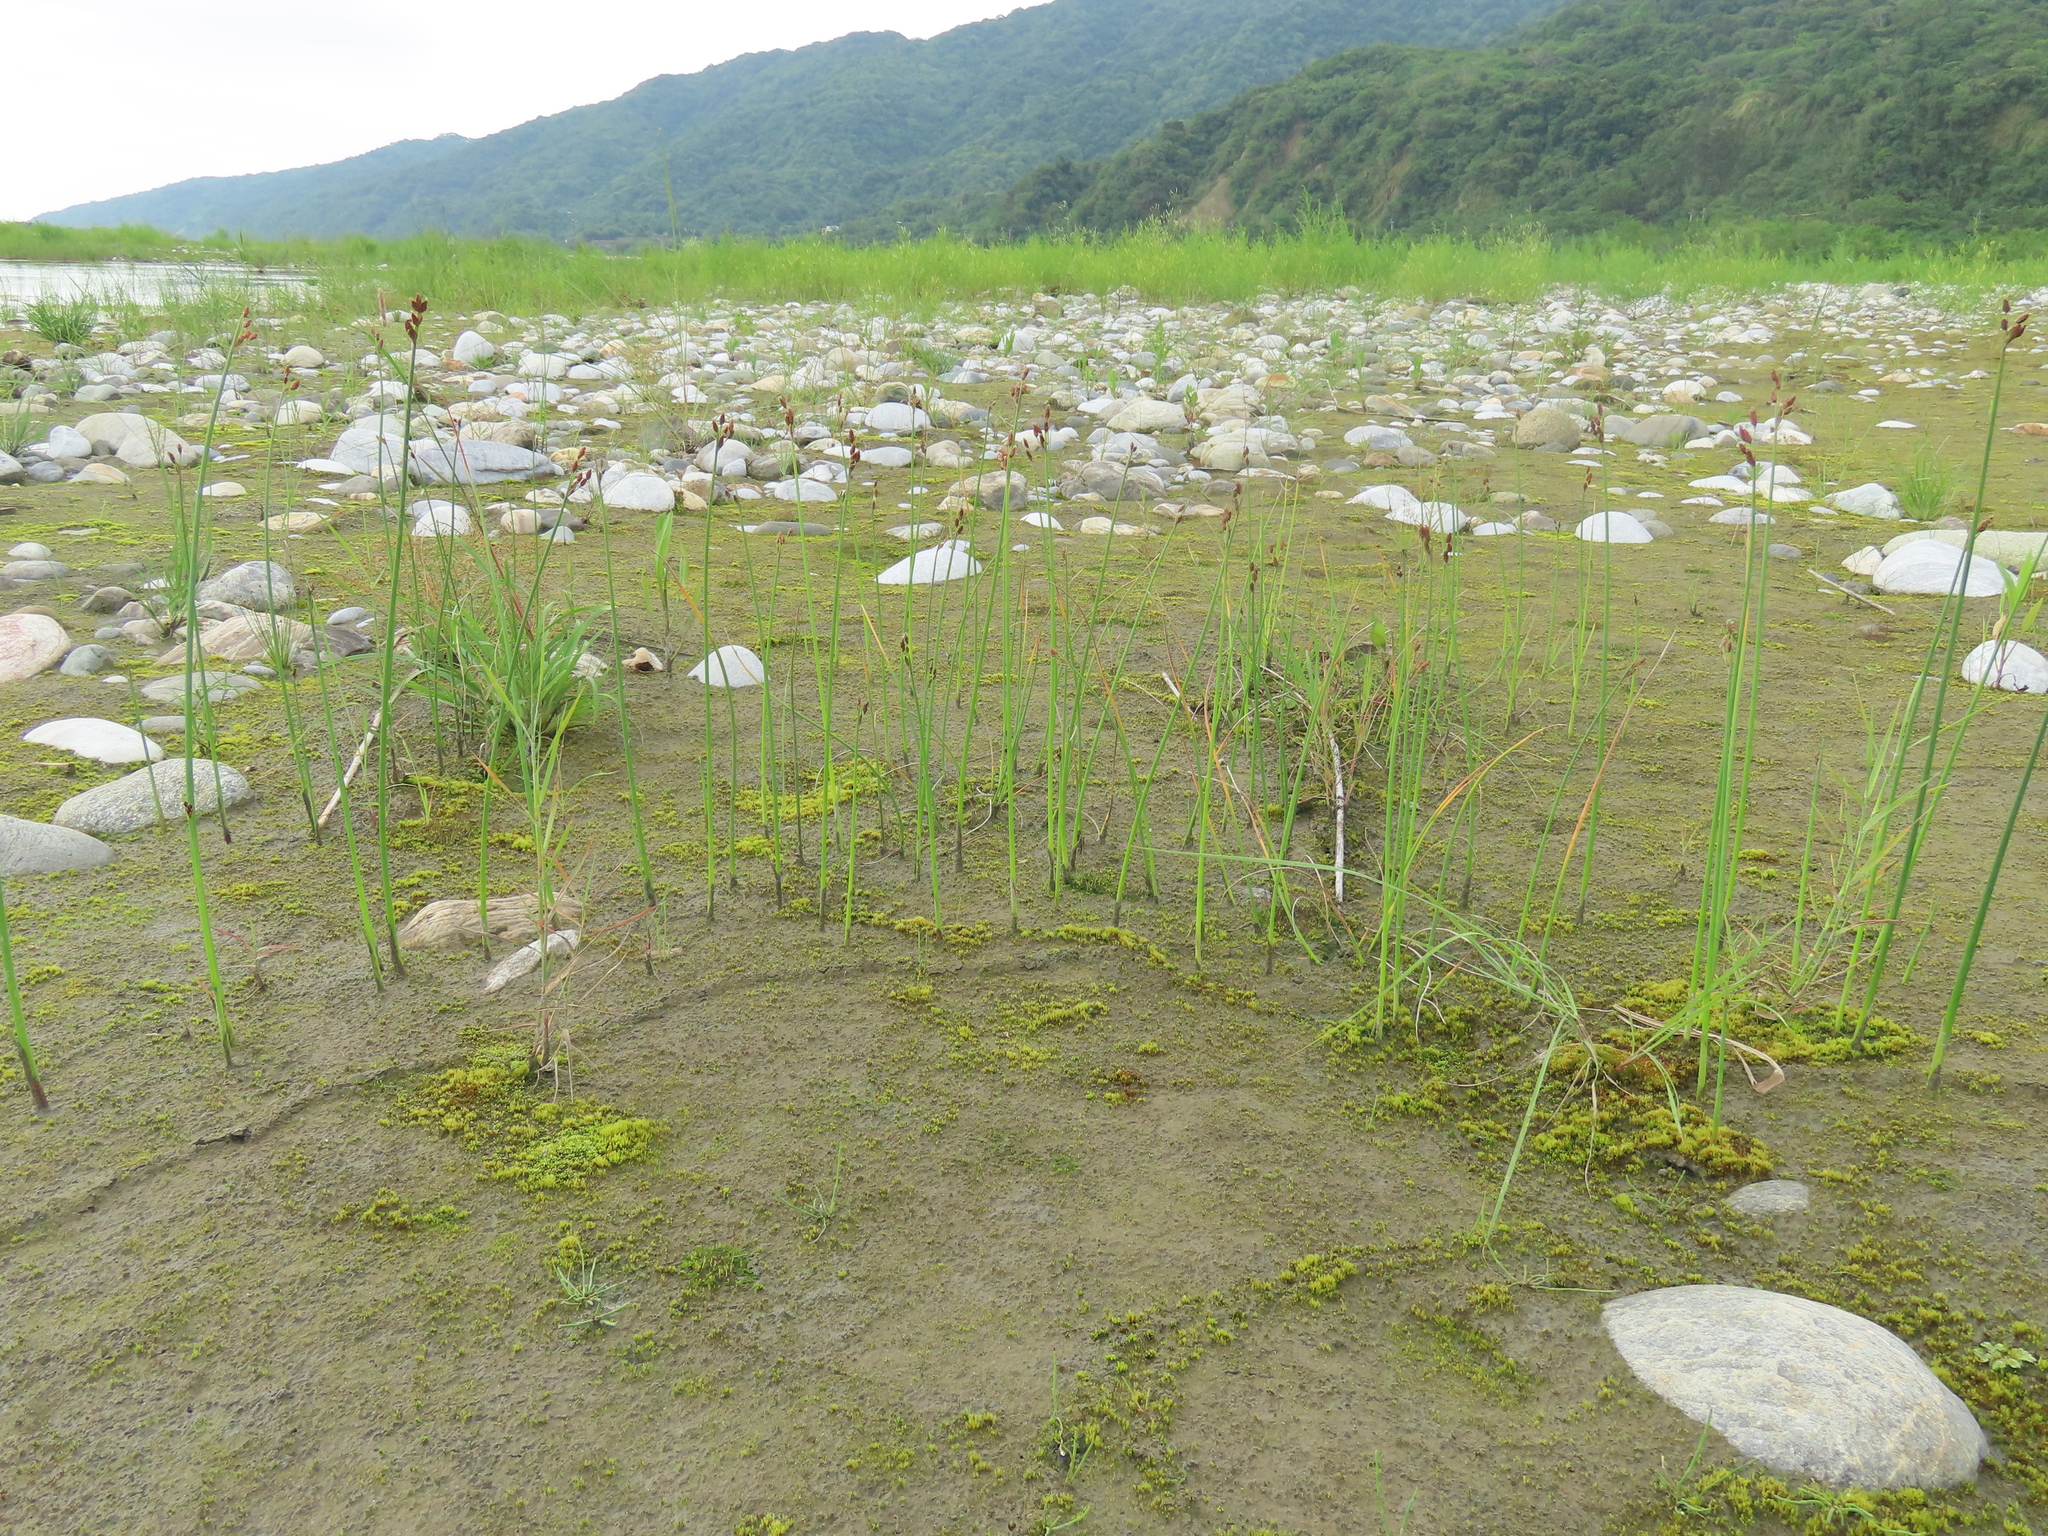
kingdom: Plantae
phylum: Tracheophyta
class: Liliopsida
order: Poales
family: Cyperaceae
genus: Schoenoplectus
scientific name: Schoenoplectus tabernaemontani
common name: Grey club-rush
